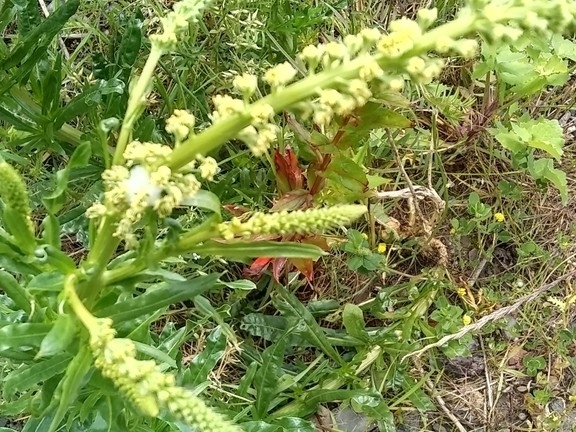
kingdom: Plantae
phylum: Tracheophyta
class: Magnoliopsida
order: Brassicales
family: Resedaceae
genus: Reseda
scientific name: Reseda luteola
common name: Weld
